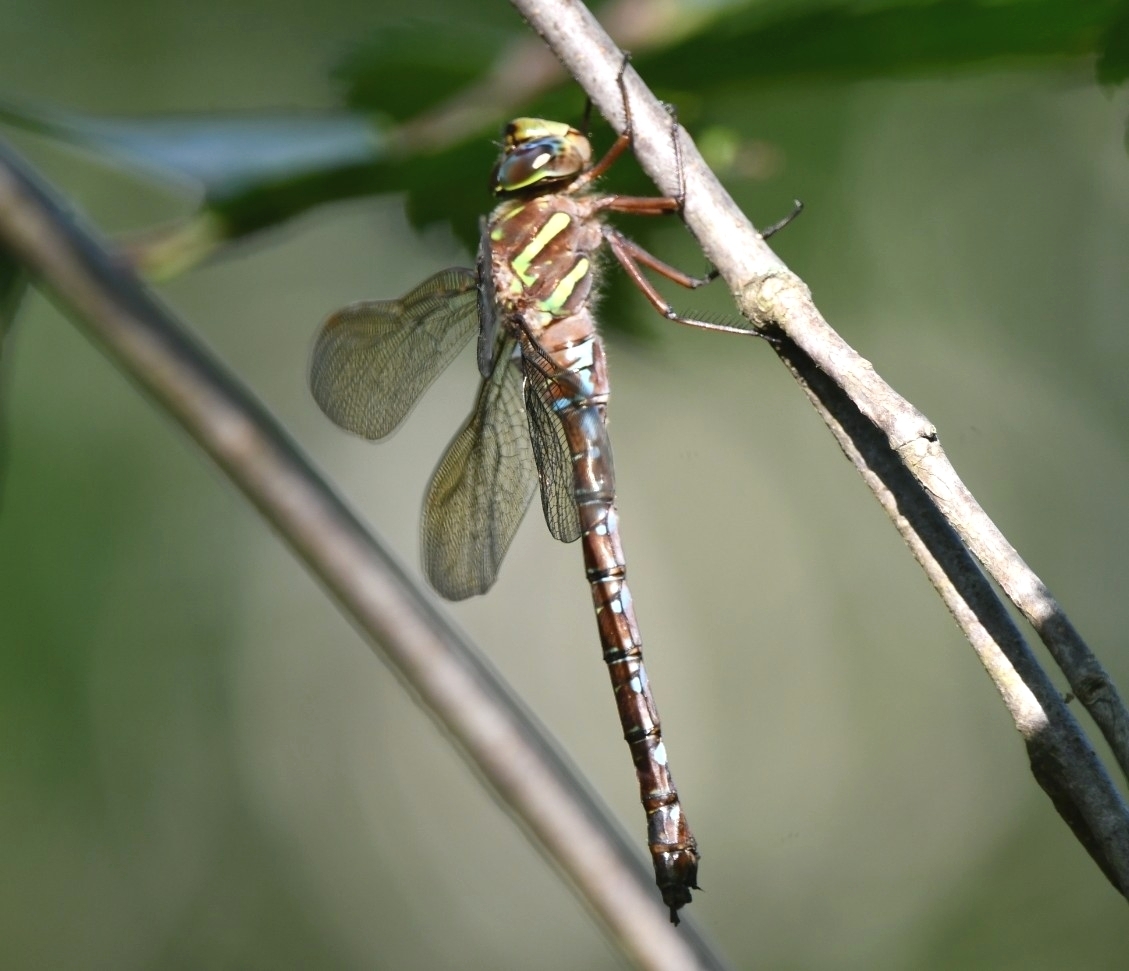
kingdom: Animalia
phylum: Arthropoda
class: Insecta
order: Odonata
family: Aeshnidae
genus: Aeshna
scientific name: Aeshna umbrosa
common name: Shadow darner
